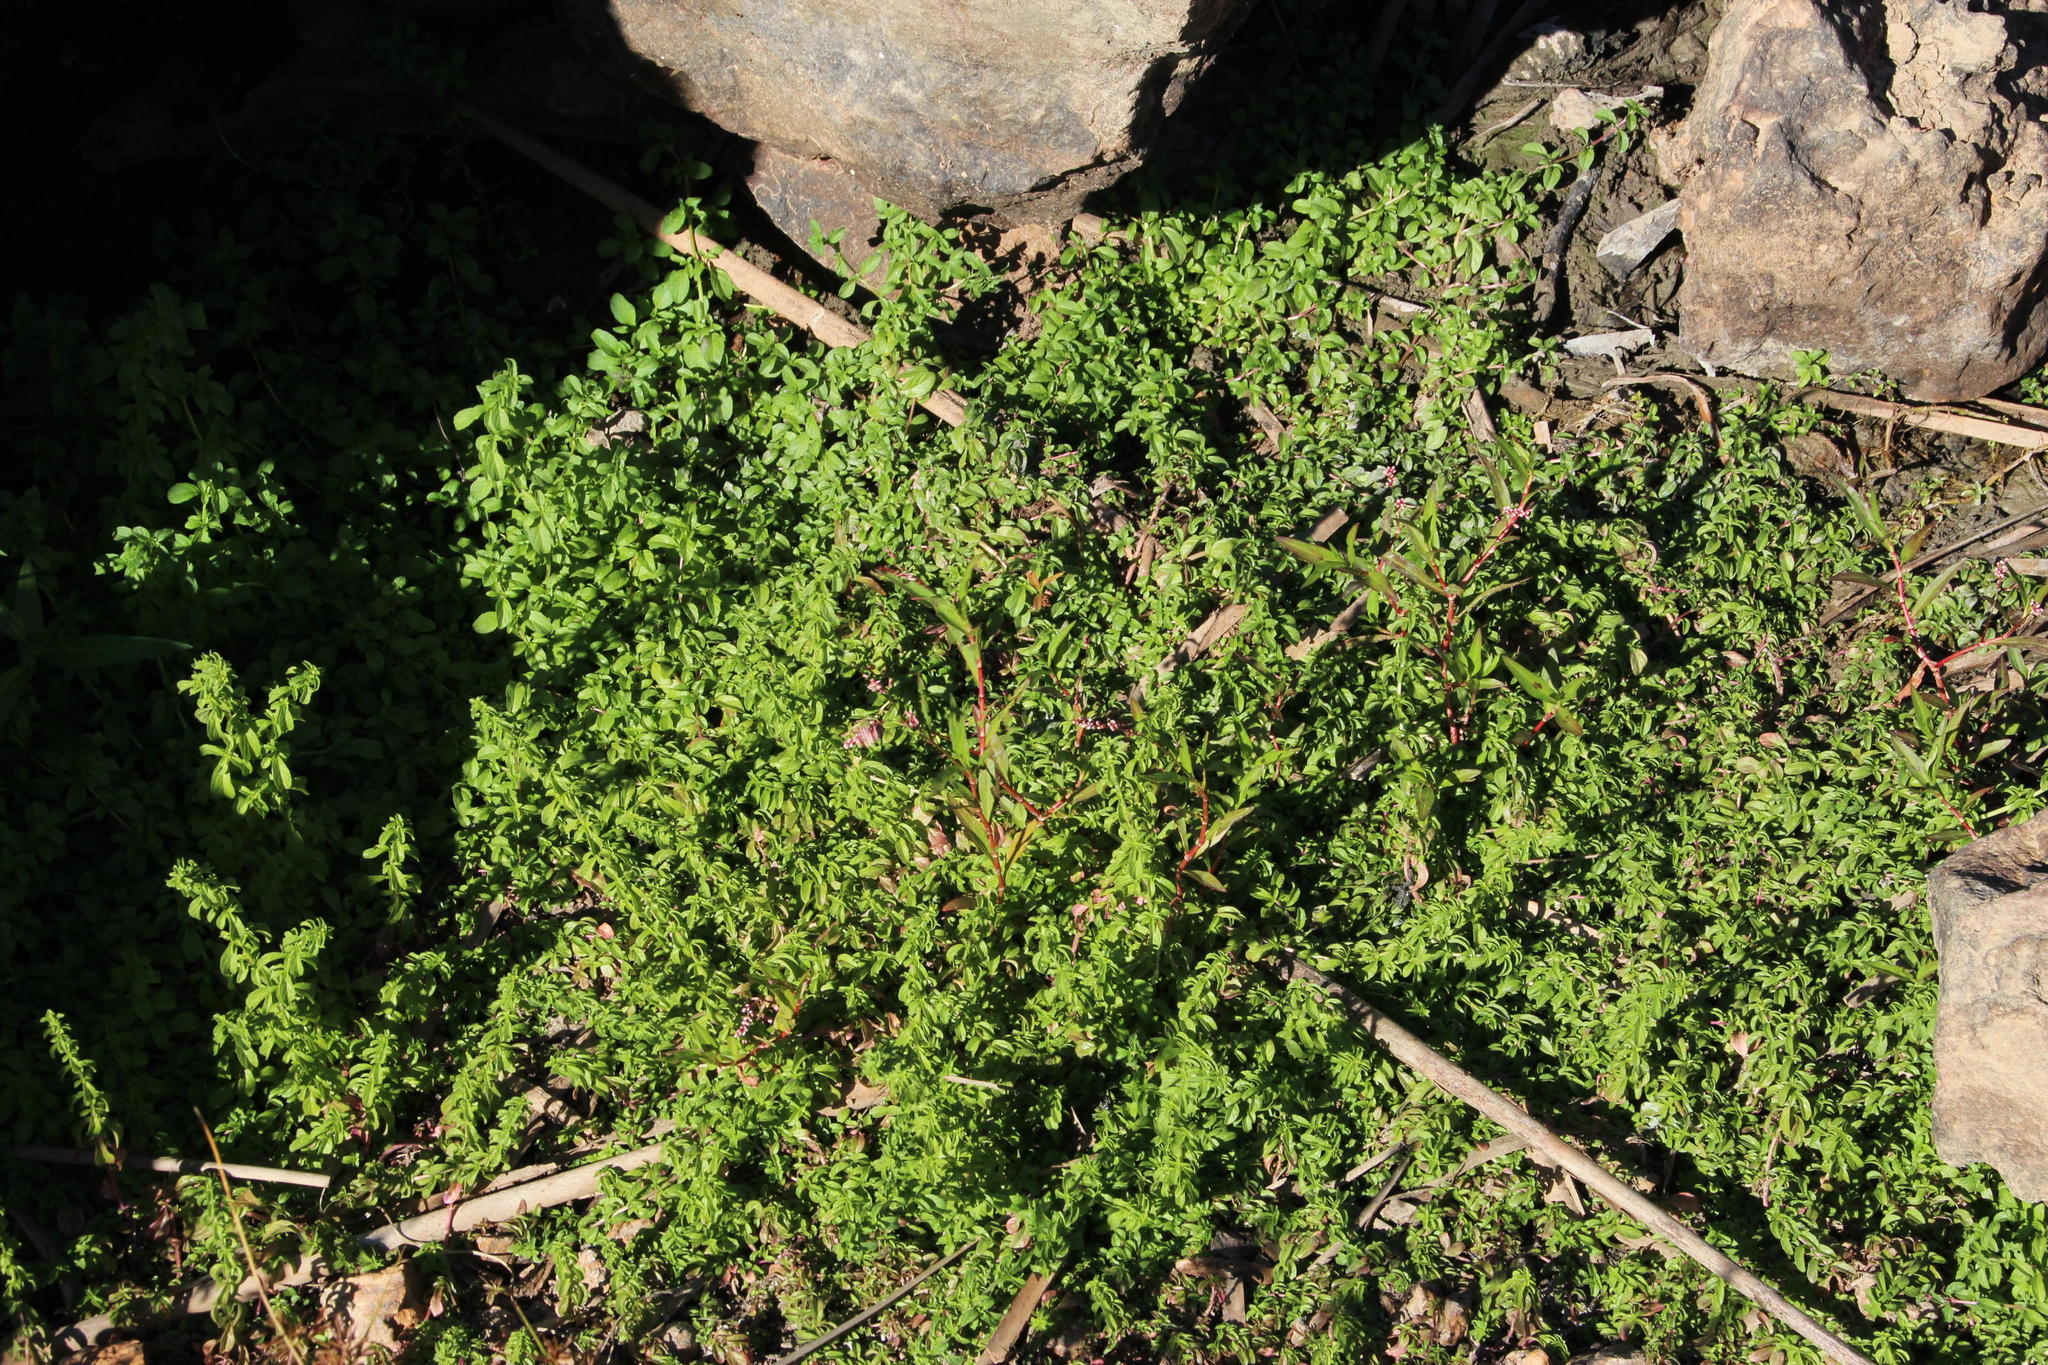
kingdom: Plantae
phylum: Tracheophyta
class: Magnoliopsida
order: Caryophyllales
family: Polygonaceae
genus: Persicaria
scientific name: Persicaria decipiens
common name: Willow-weed
